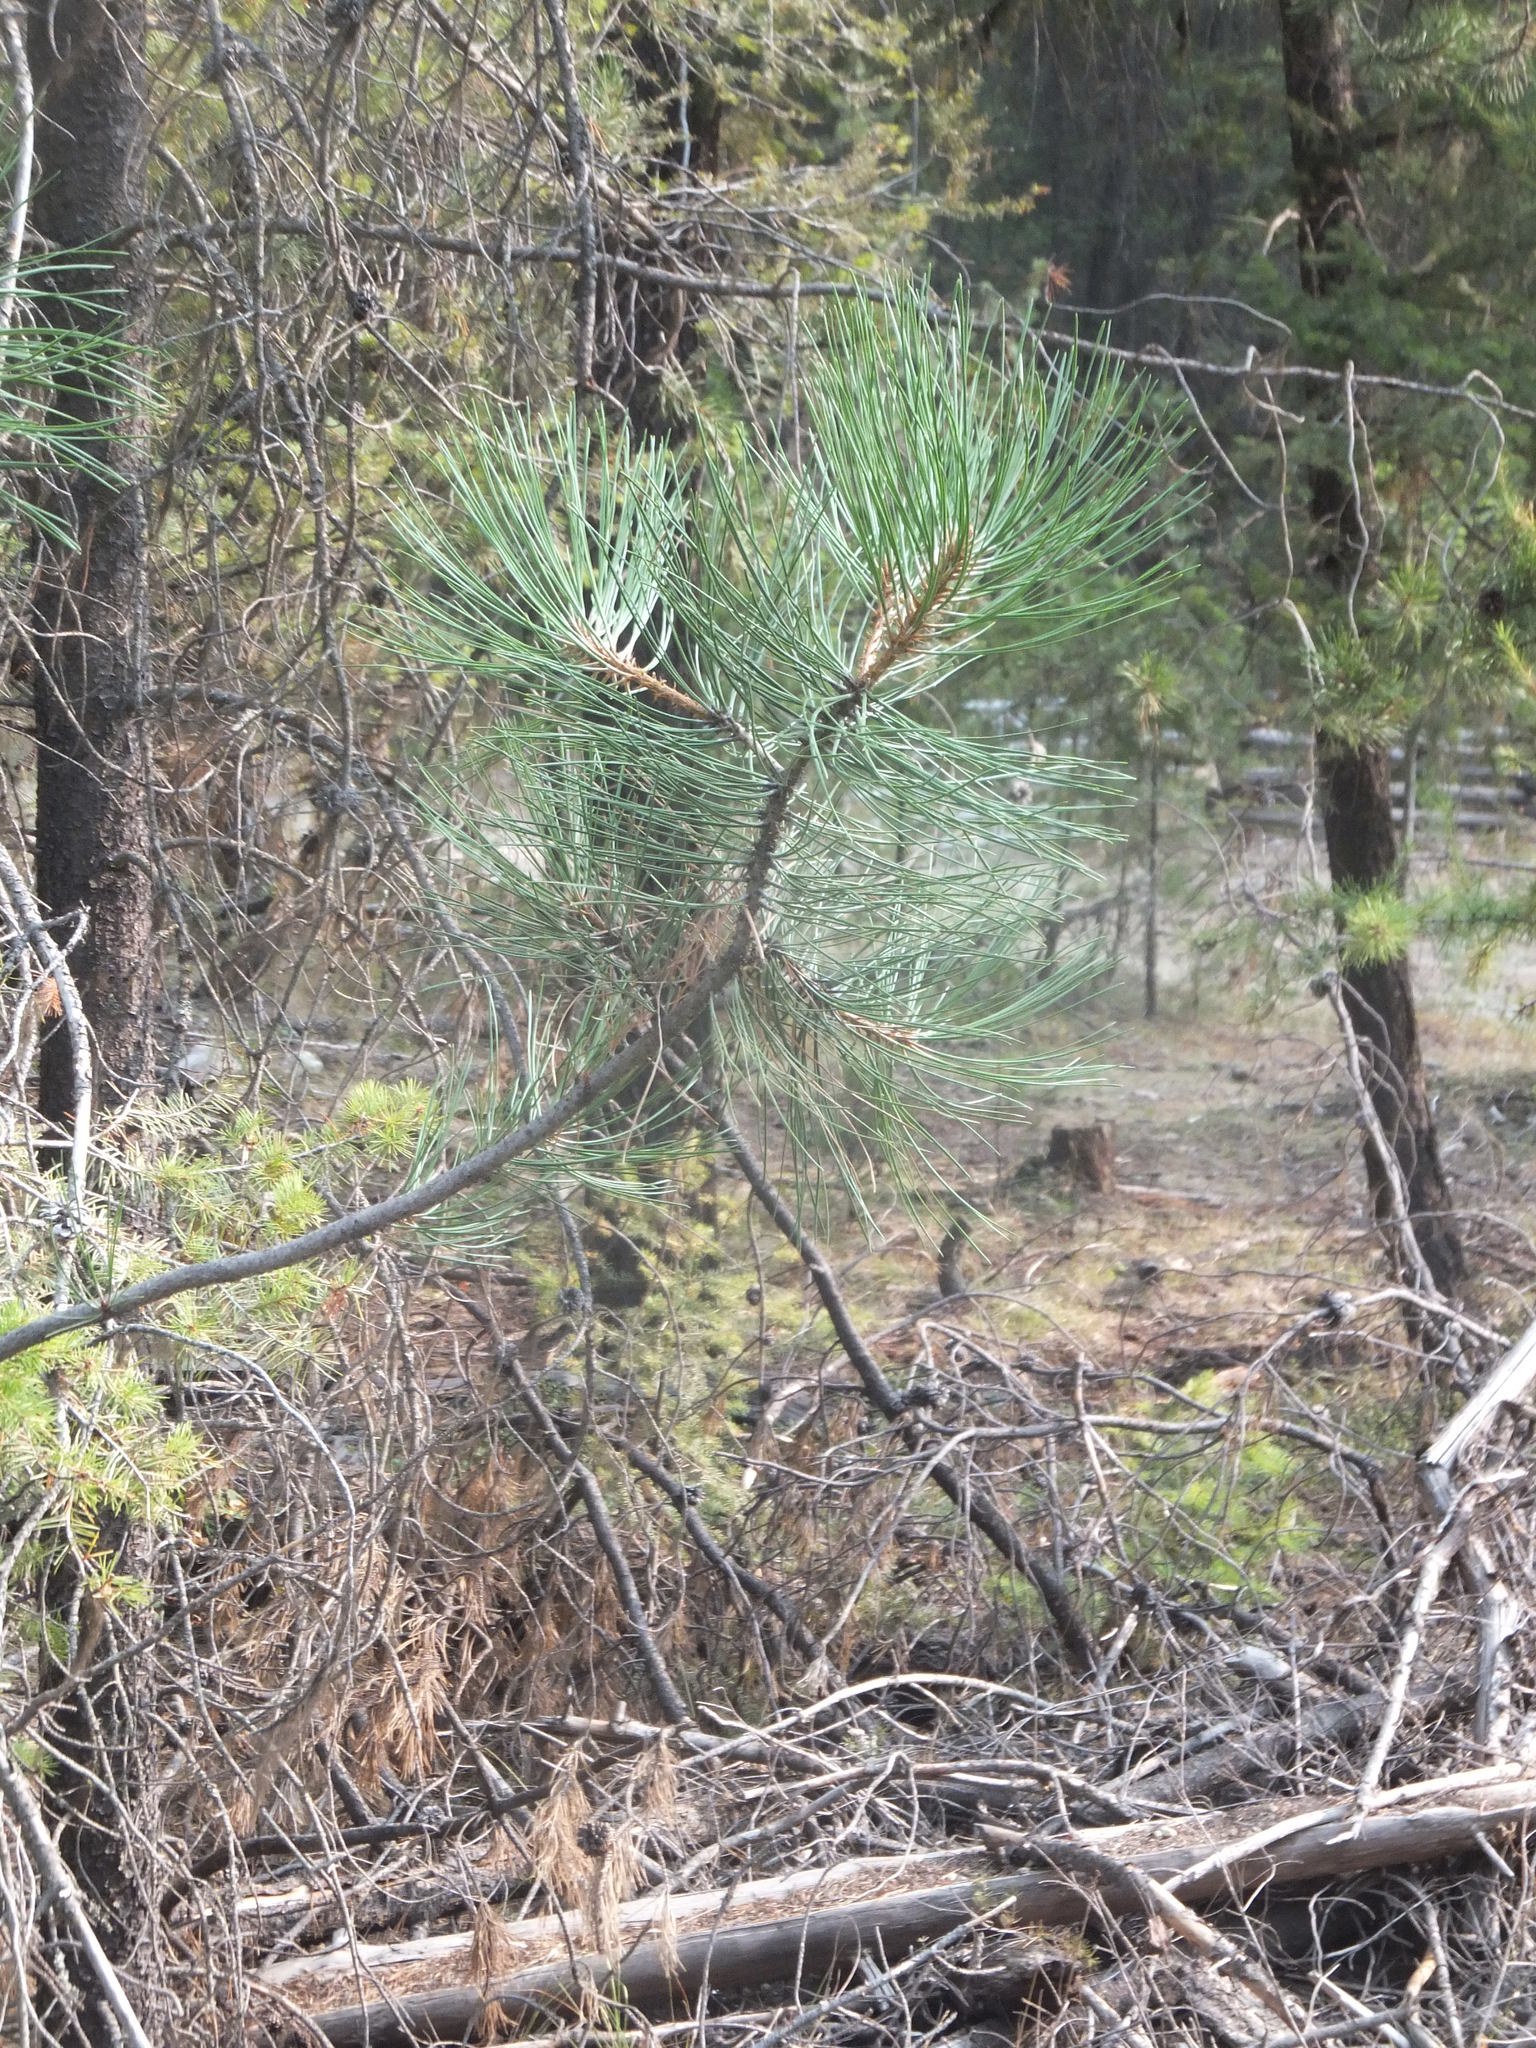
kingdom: Plantae
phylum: Tracheophyta
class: Pinopsida
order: Pinales
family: Pinaceae
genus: Pinus
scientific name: Pinus ponderosa
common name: Western yellow-pine
